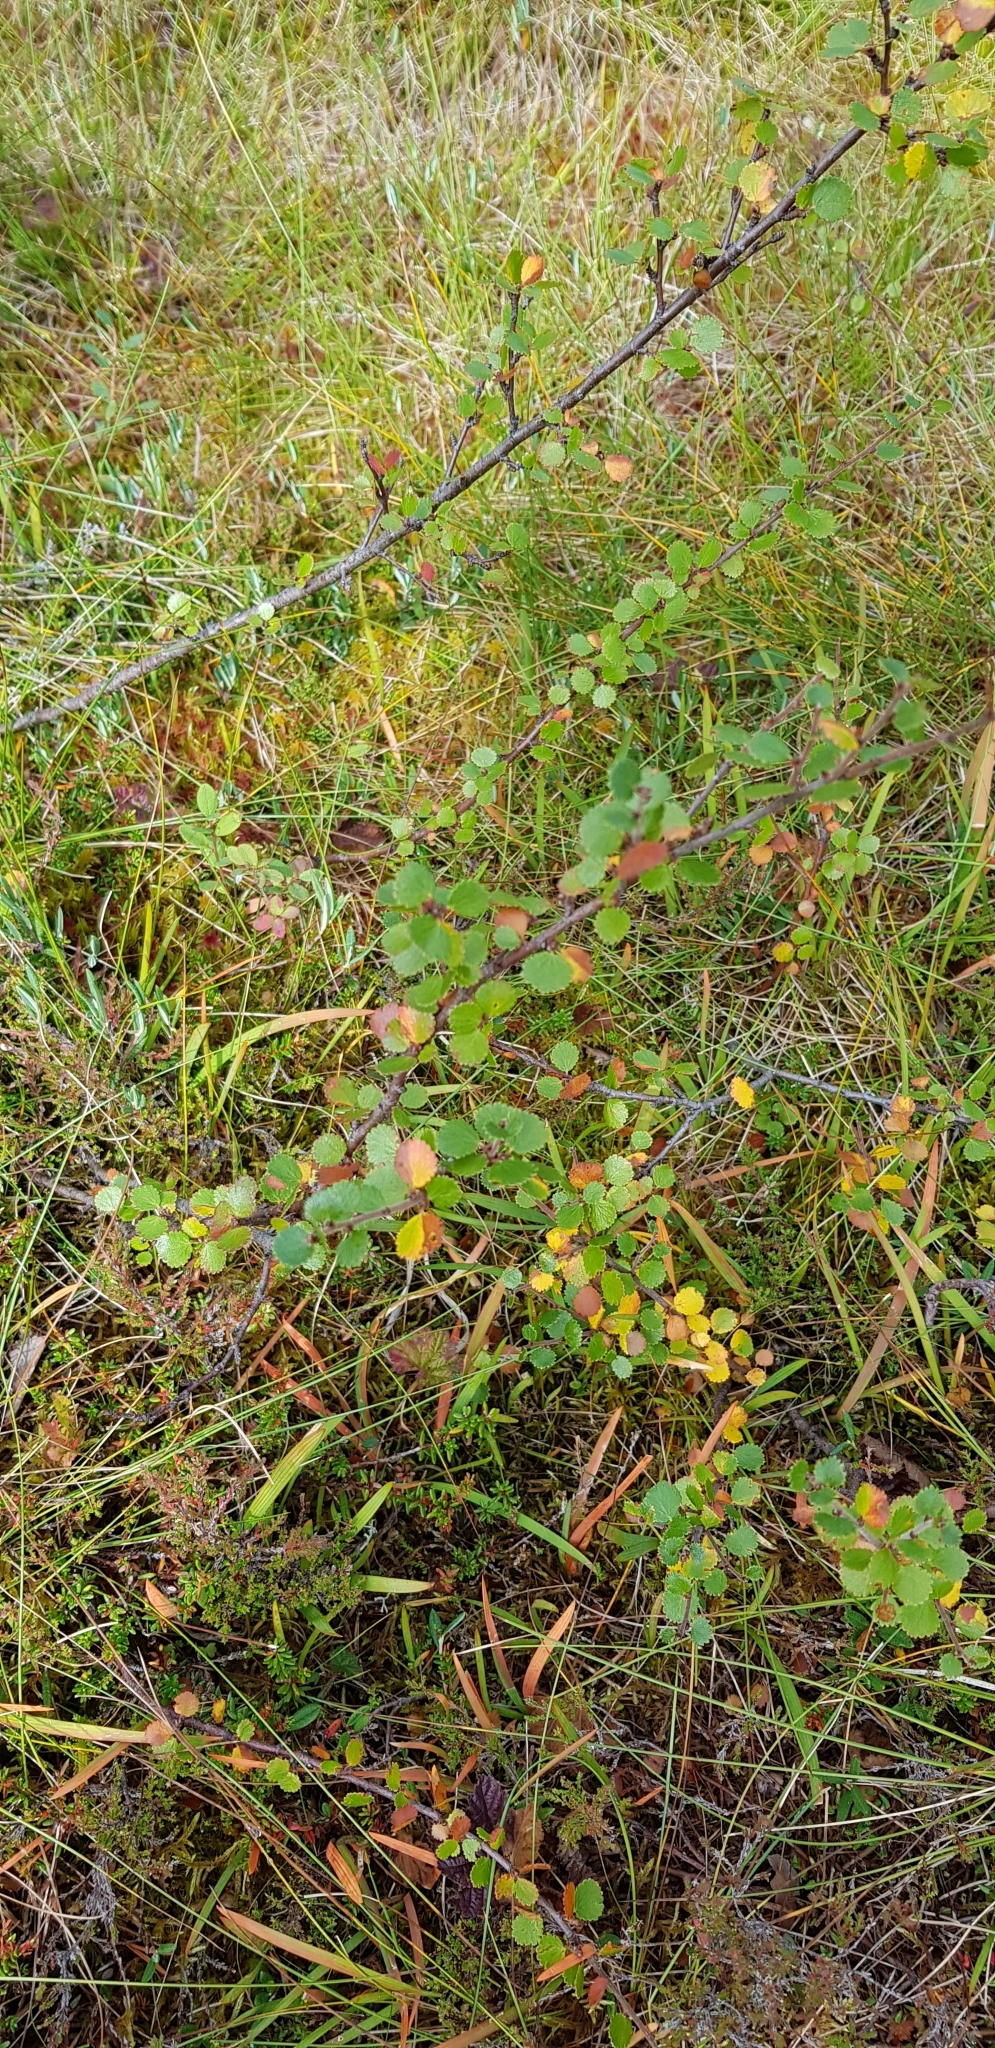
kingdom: Plantae
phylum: Tracheophyta
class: Magnoliopsida
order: Fagales
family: Betulaceae
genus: Betula
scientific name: Betula nana
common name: Arctic dwarf birch
